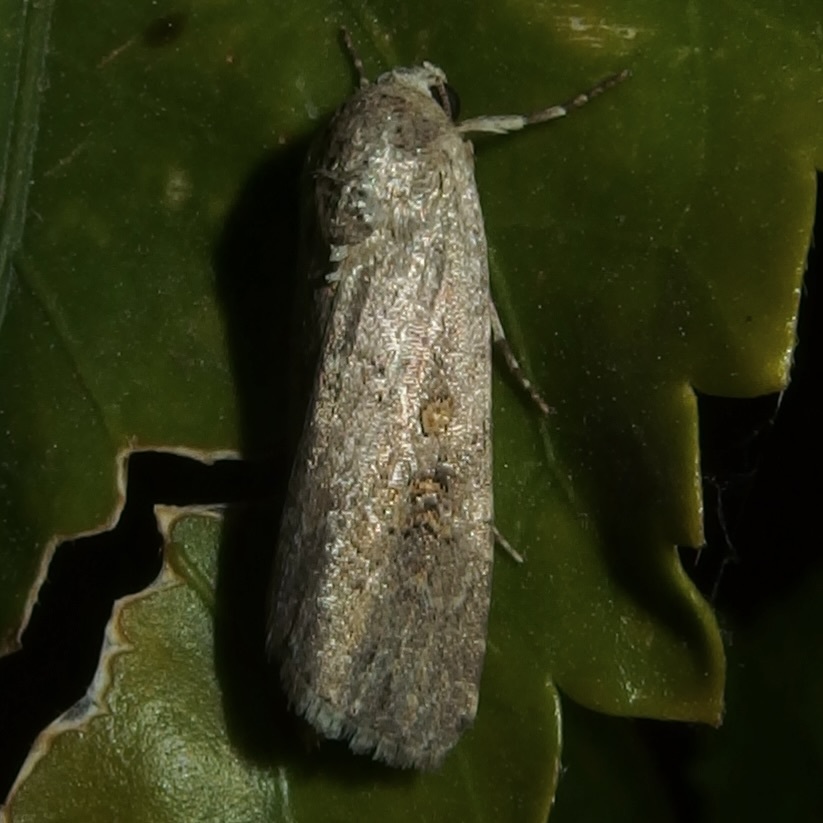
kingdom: Animalia
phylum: Arthropoda
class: Insecta
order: Lepidoptera
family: Noctuidae
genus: Spodoptera
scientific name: Spodoptera exigua
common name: Beet armyworm
